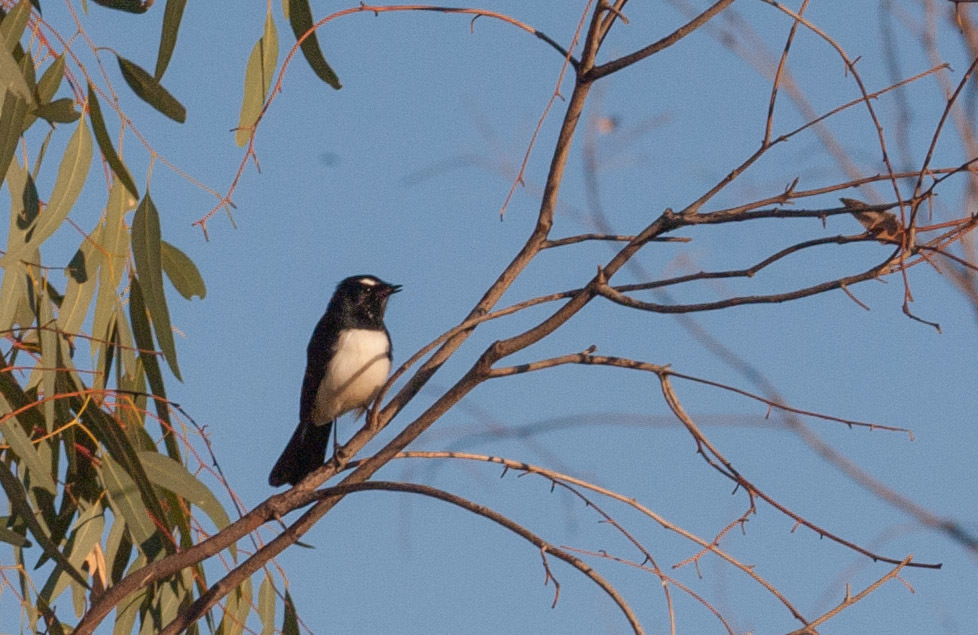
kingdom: Animalia
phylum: Chordata
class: Aves
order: Passeriformes
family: Rhipiduridae
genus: Rhipidura
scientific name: Rhipidura leucophrys
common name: Willie wagtail
